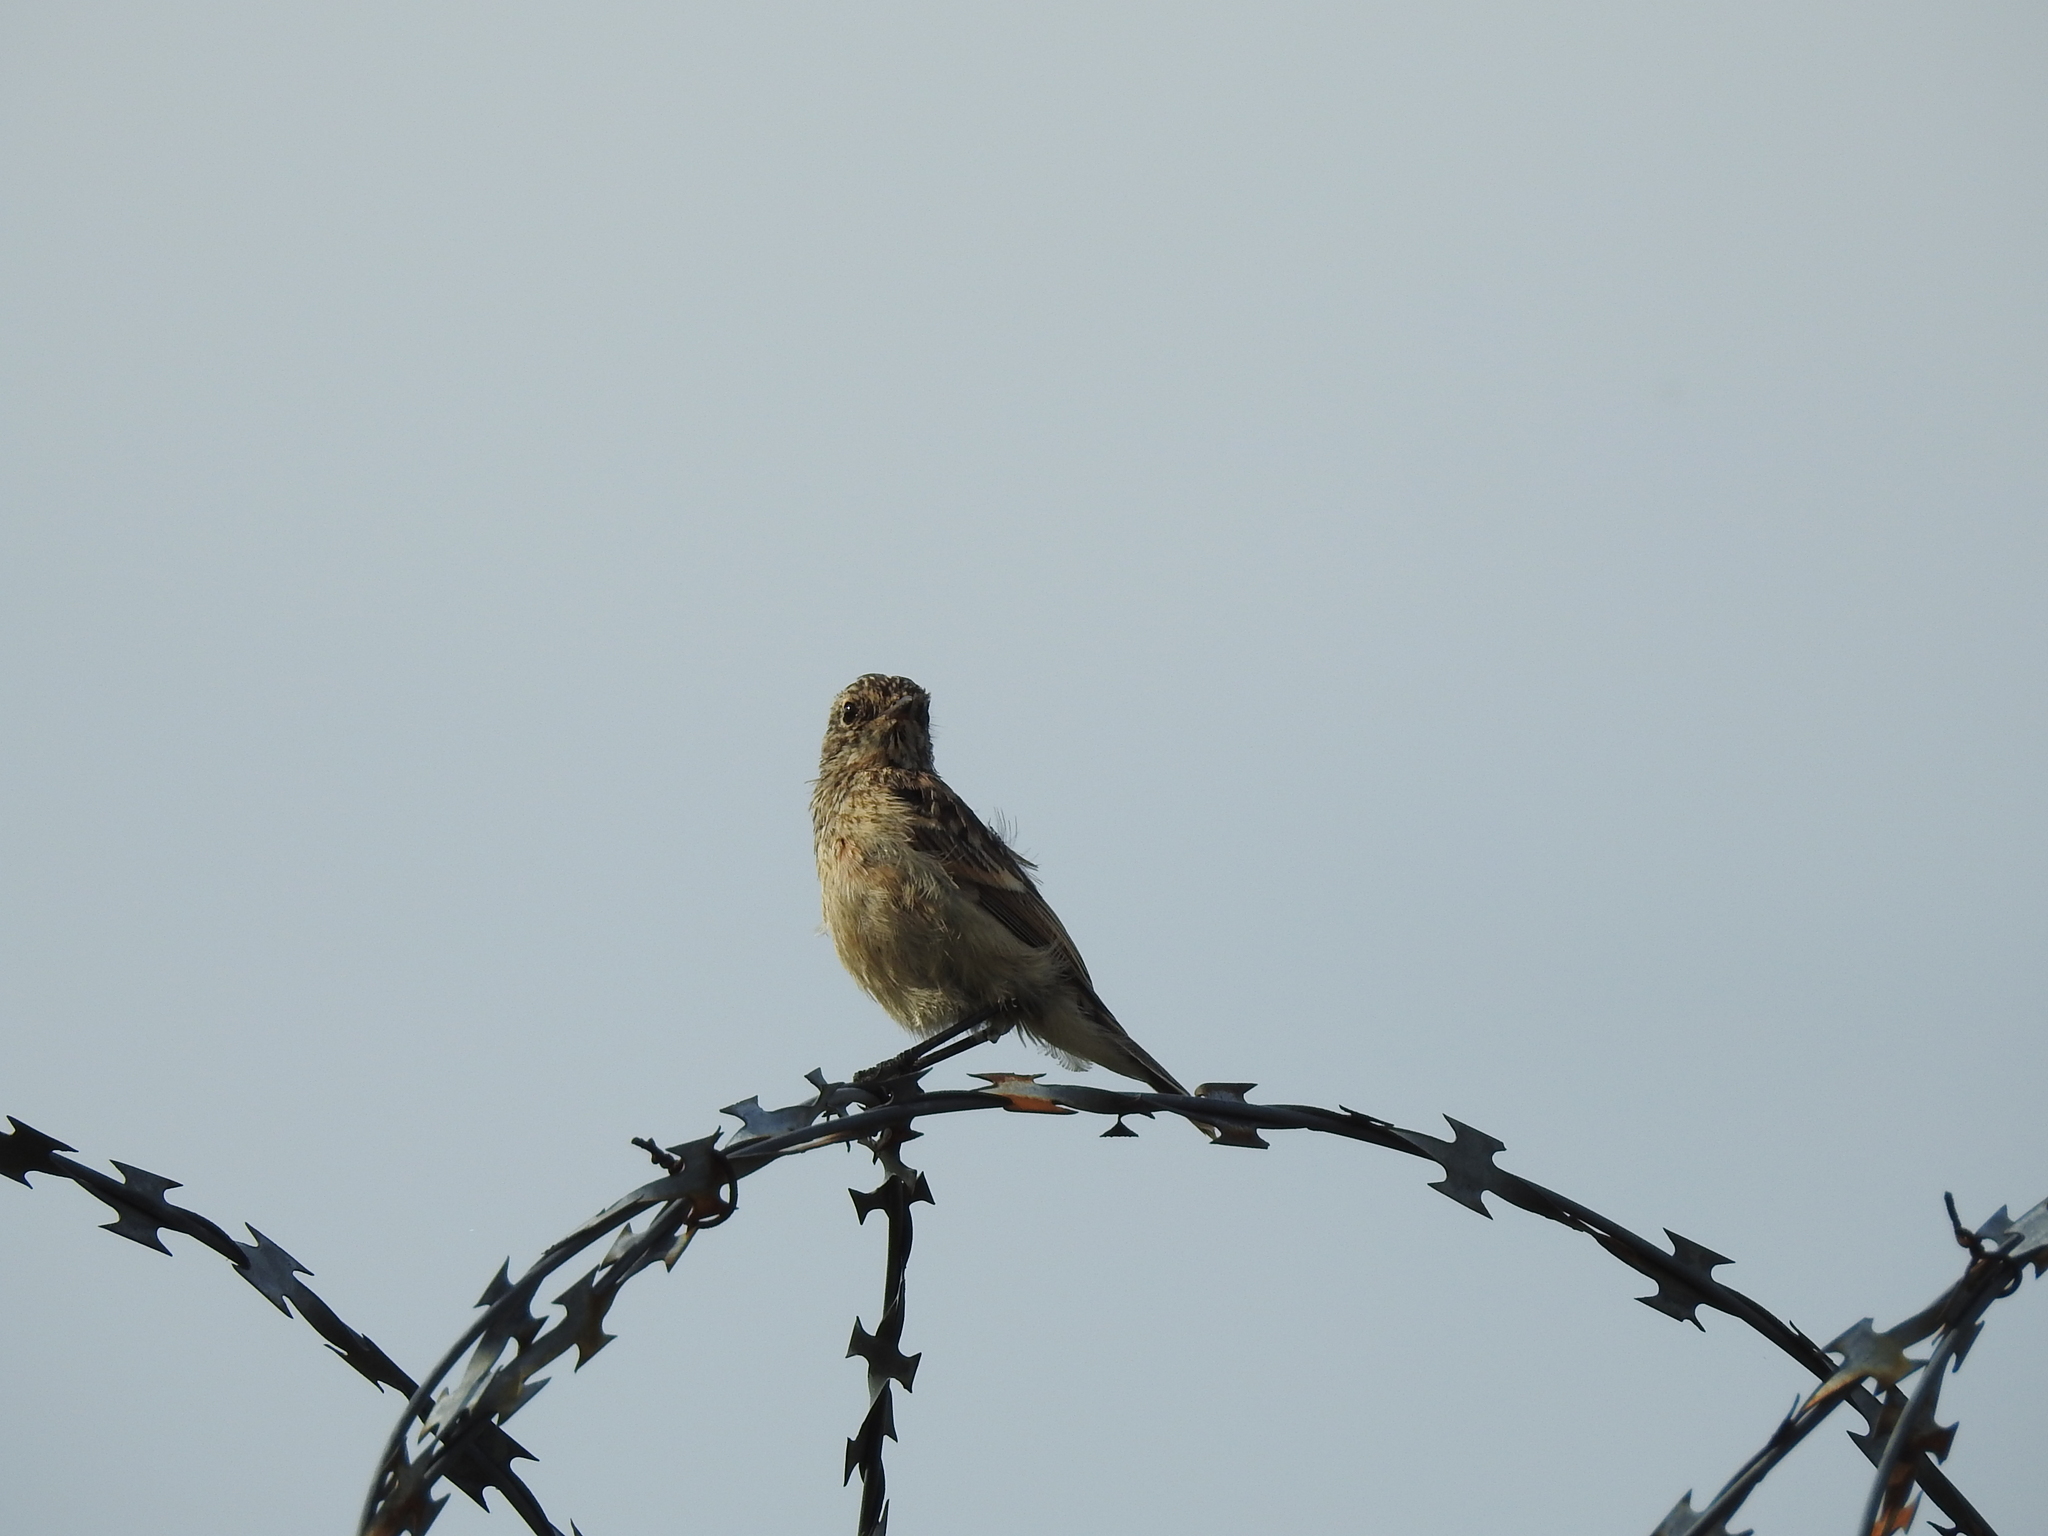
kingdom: Animalia
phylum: Chordata
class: Aves
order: Passeriformes
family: Muscicapidae
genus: Saxicola
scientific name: Saxicola maurus
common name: Siberian stonechat
